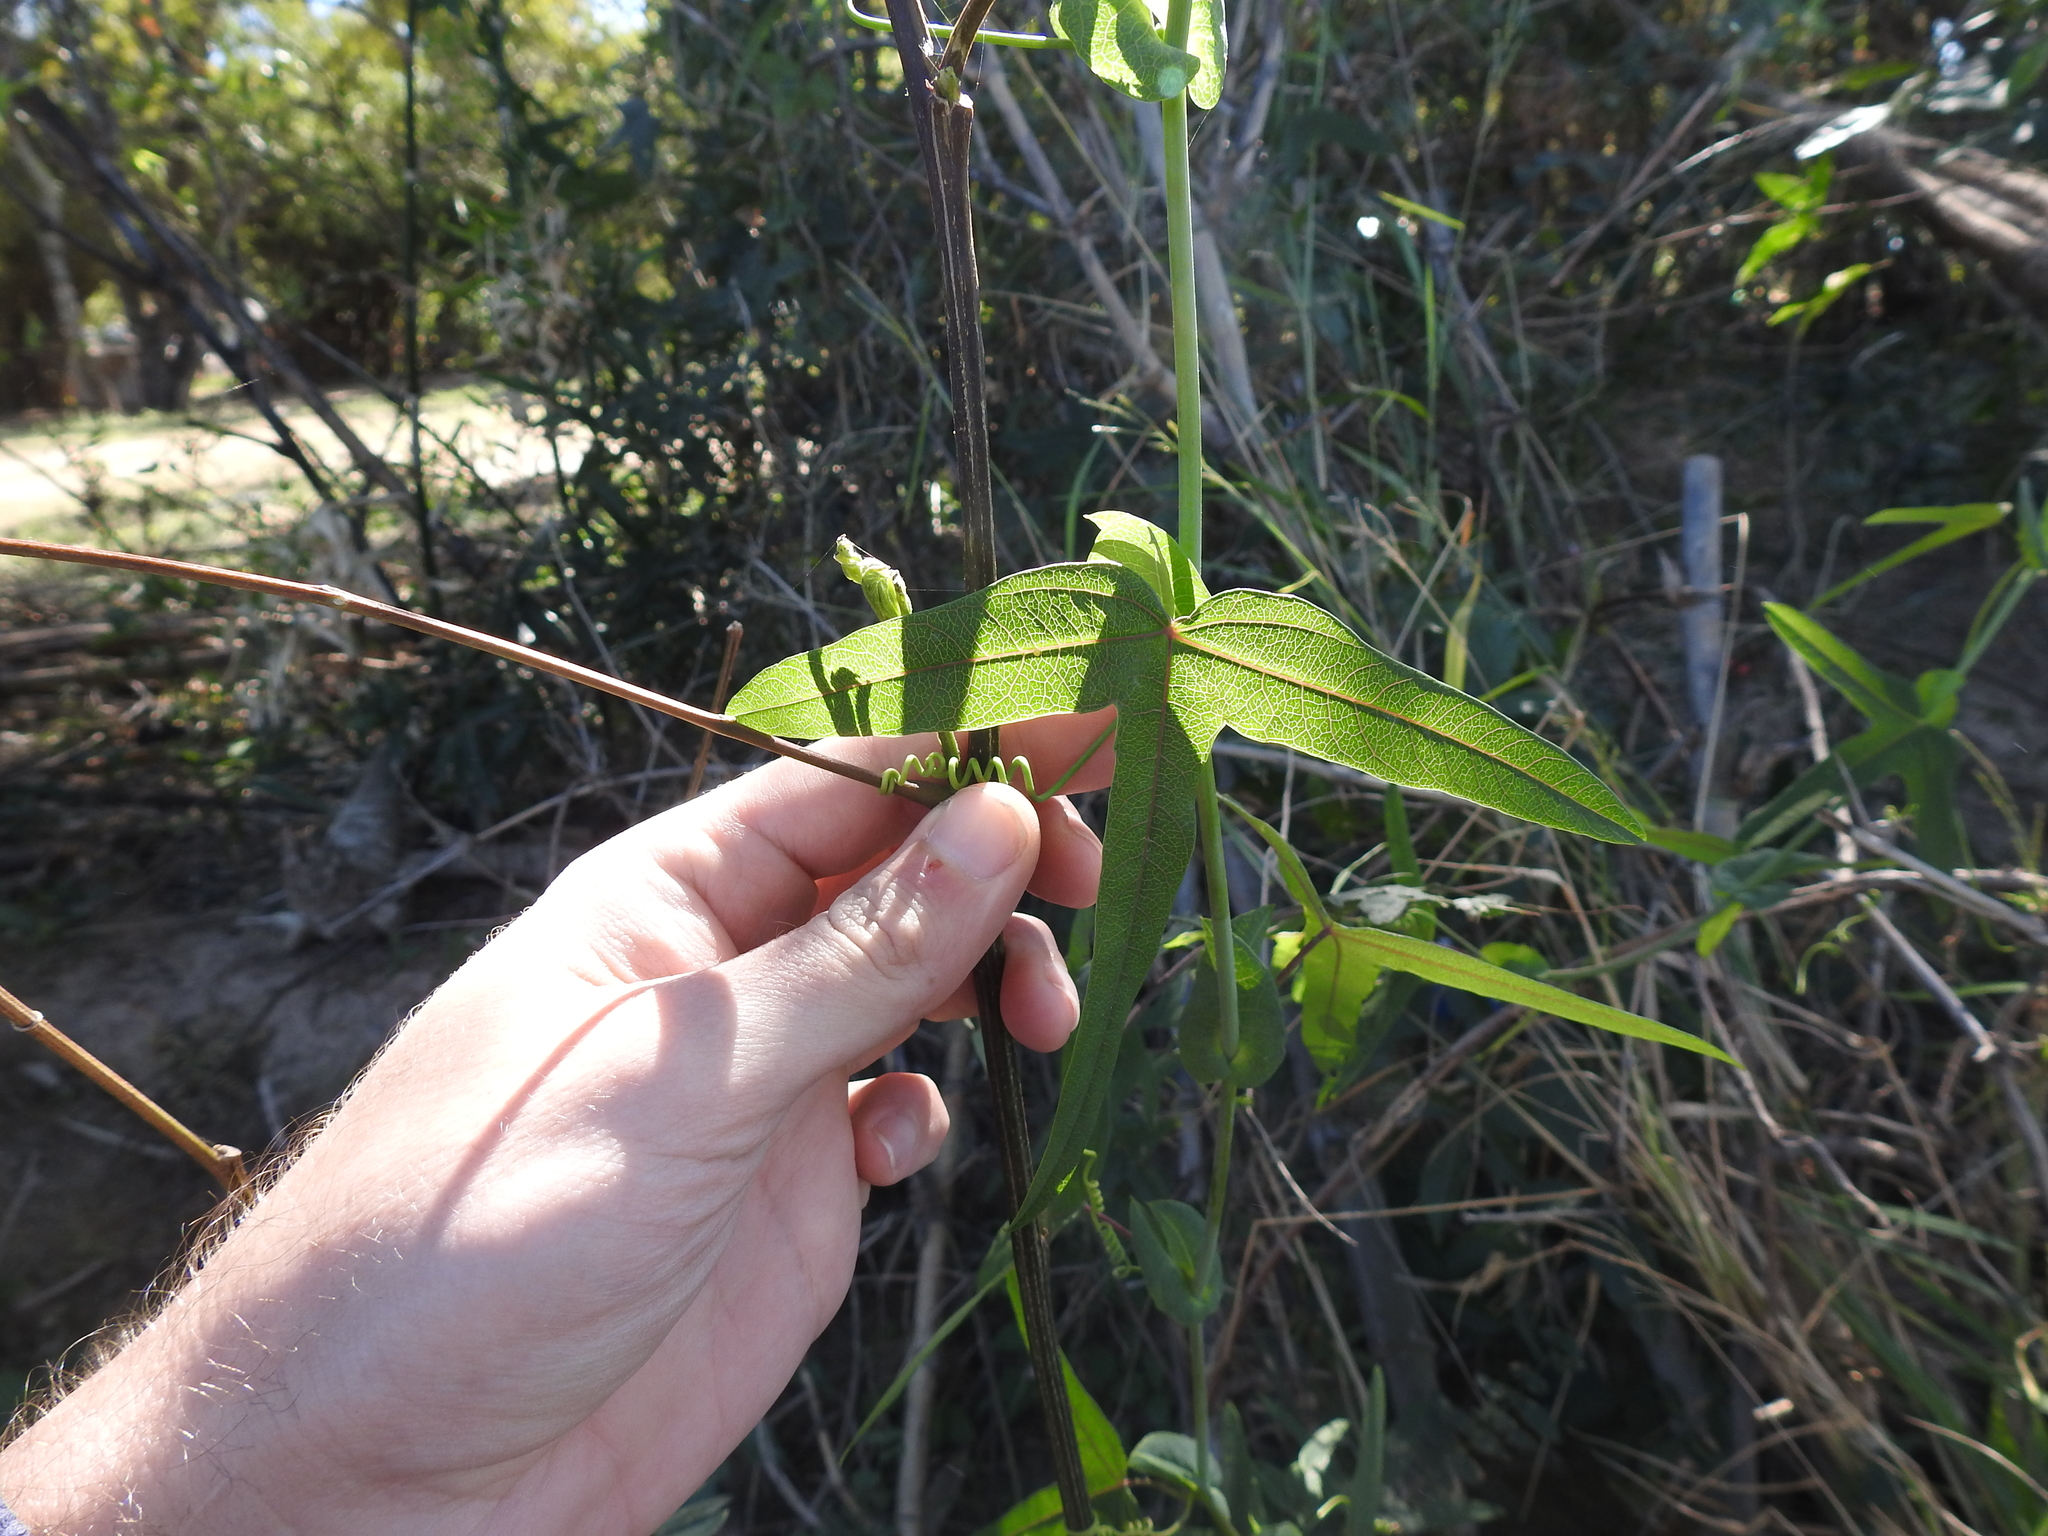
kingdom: Plantae
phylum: Tracheophyta
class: Magnoliopsida
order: Malpighiales
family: Passifloraceae
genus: Passiflora
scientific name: Passiflora giberti
